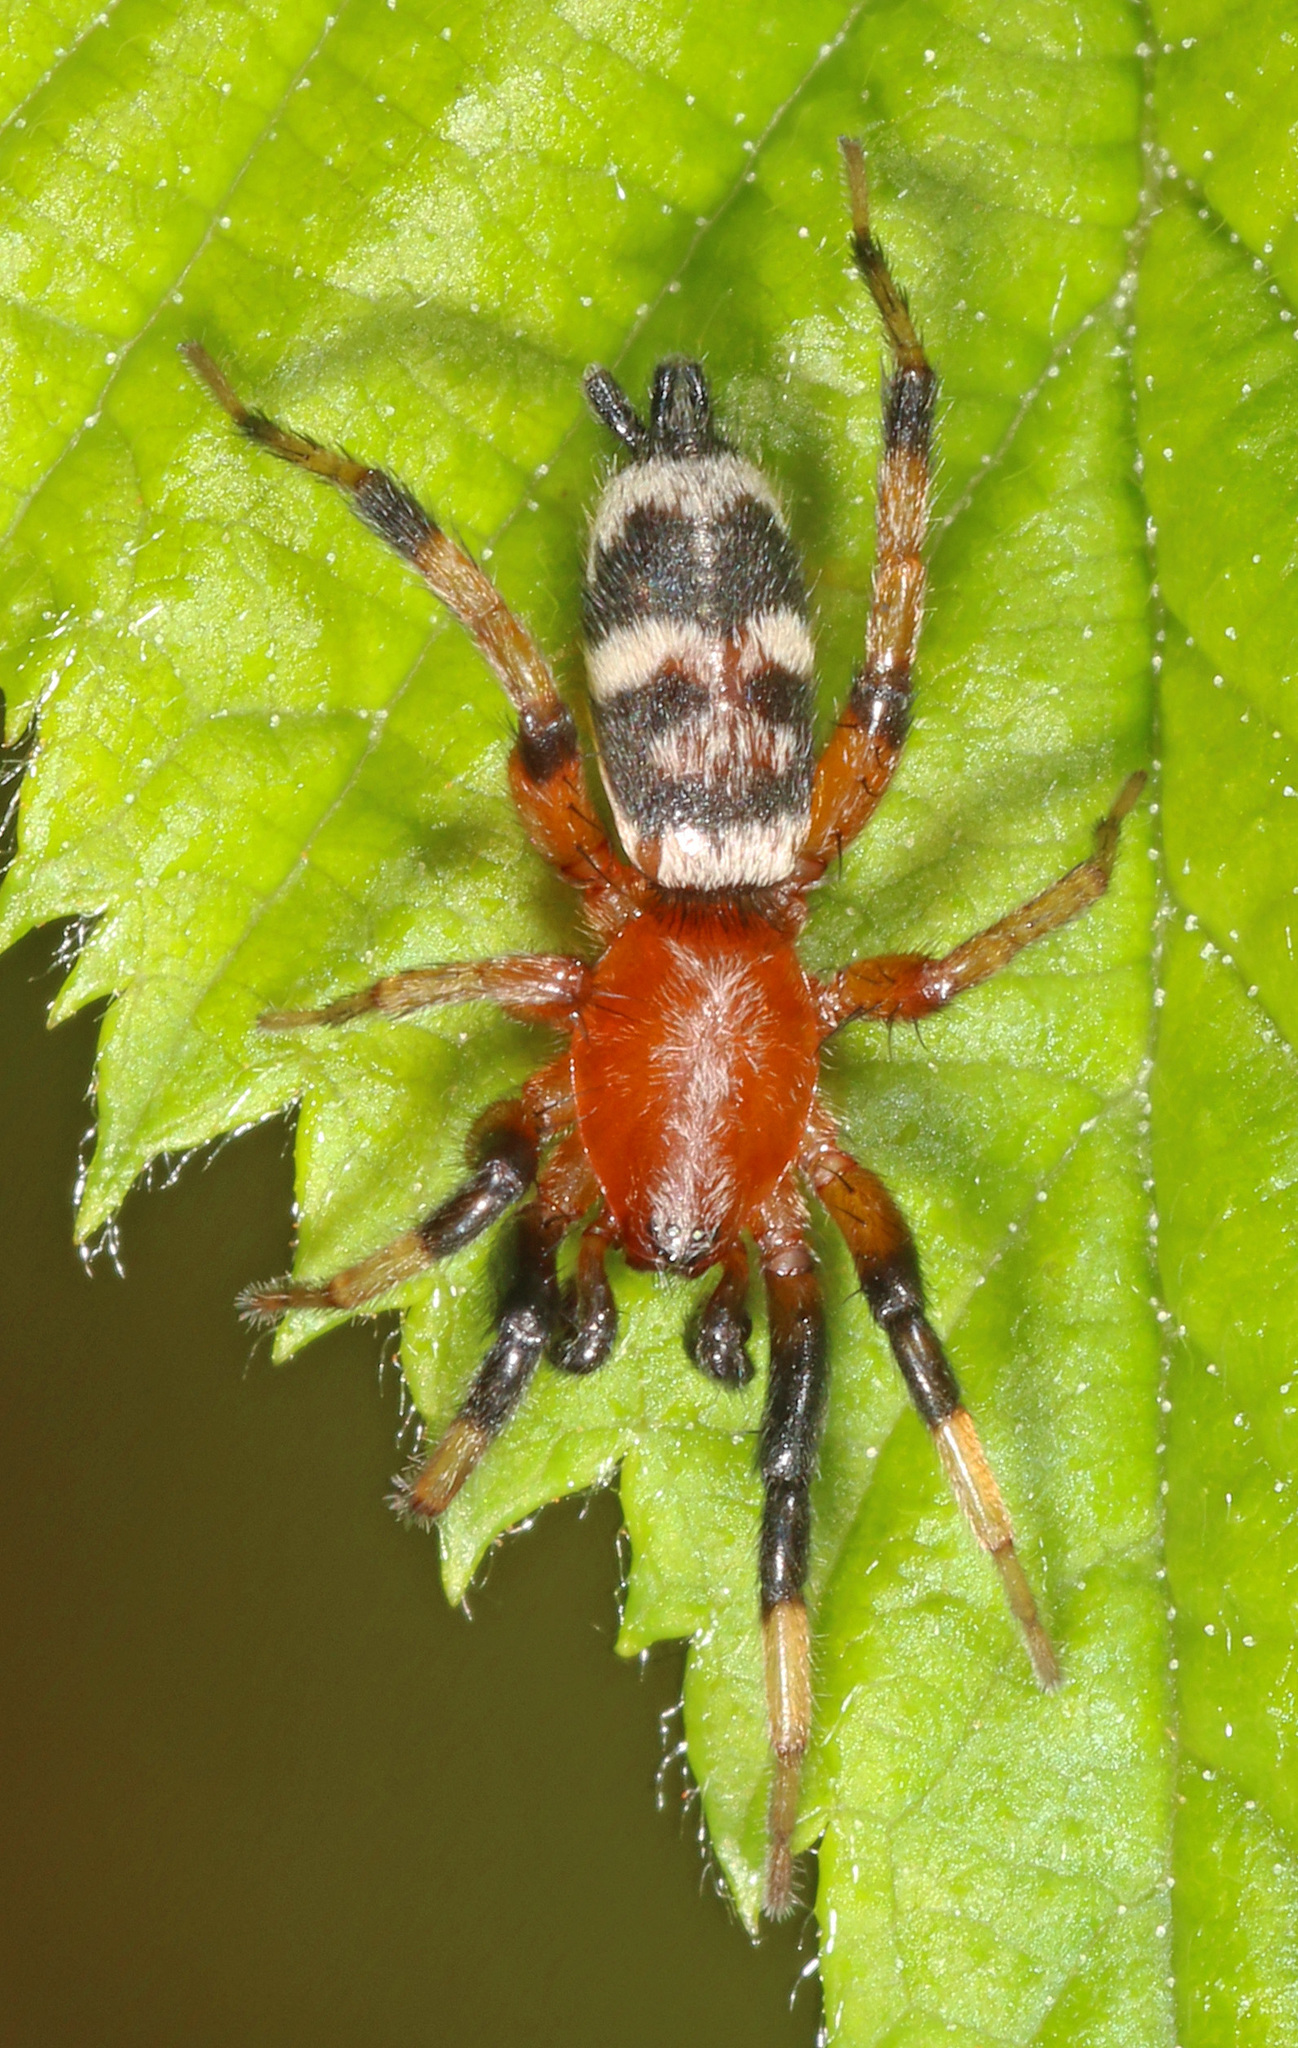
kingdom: Animalia
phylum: Arthropoda
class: Arachnida
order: Araneae
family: Gnaphosidae
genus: Sergiolus
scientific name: Sergiolus capulatus
